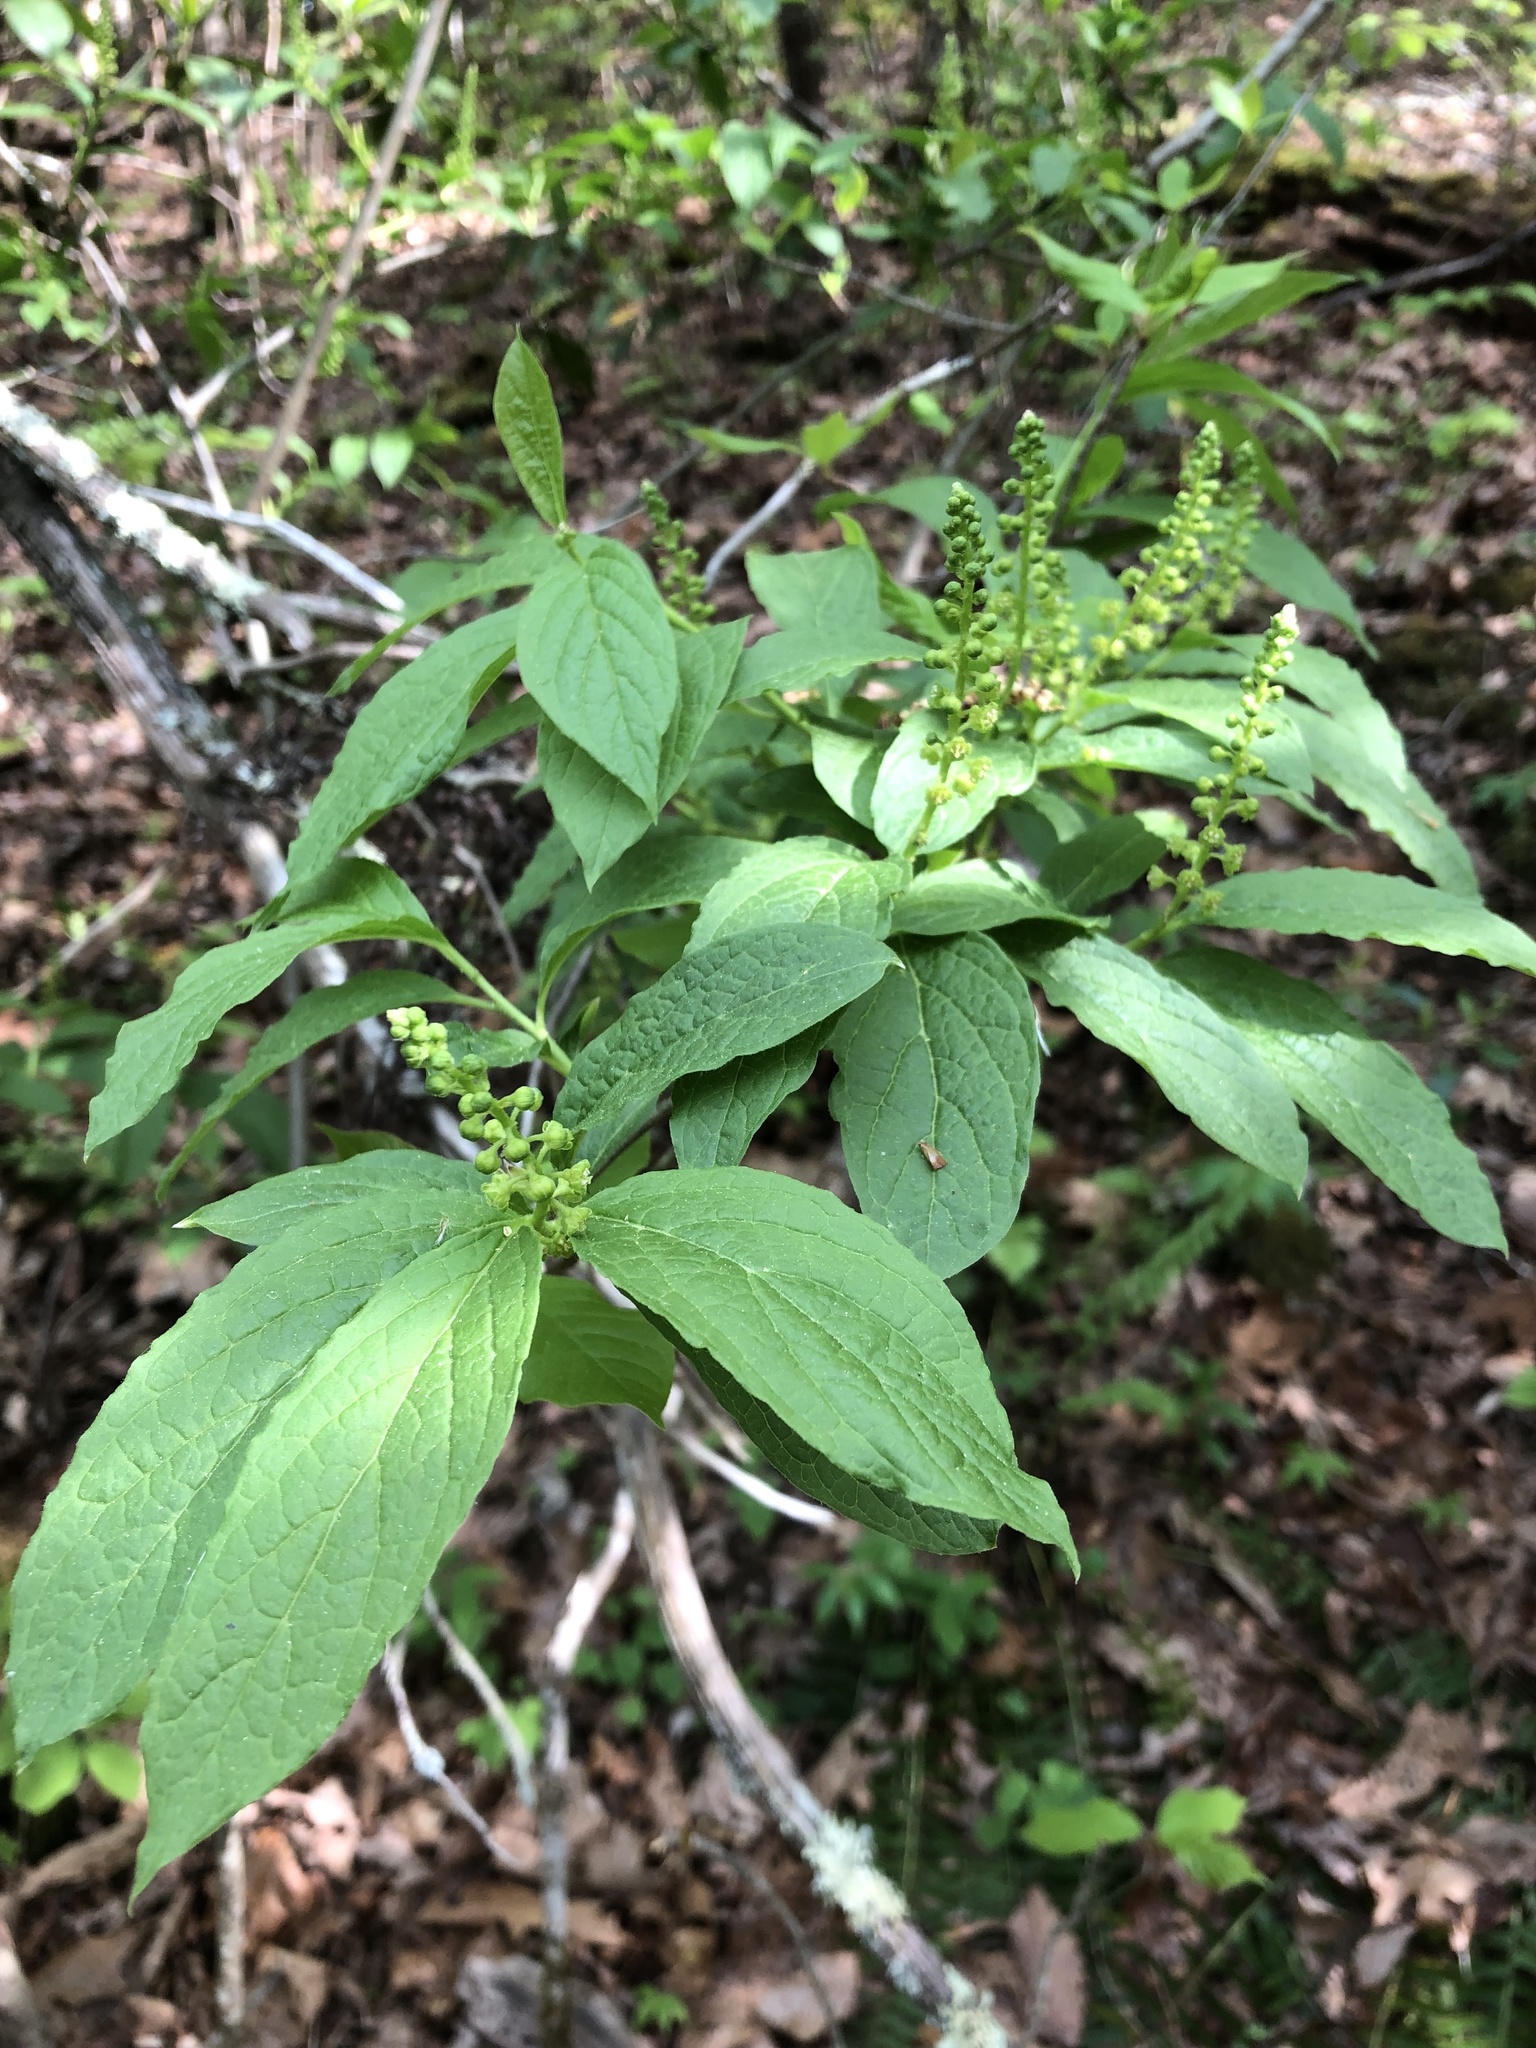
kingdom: Plantae
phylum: Tracheophyta
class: Magnoliopsida
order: Santalales
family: Cervantesiaceae
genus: Pyrularia
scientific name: Pyrularia pubera
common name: Oilnut
